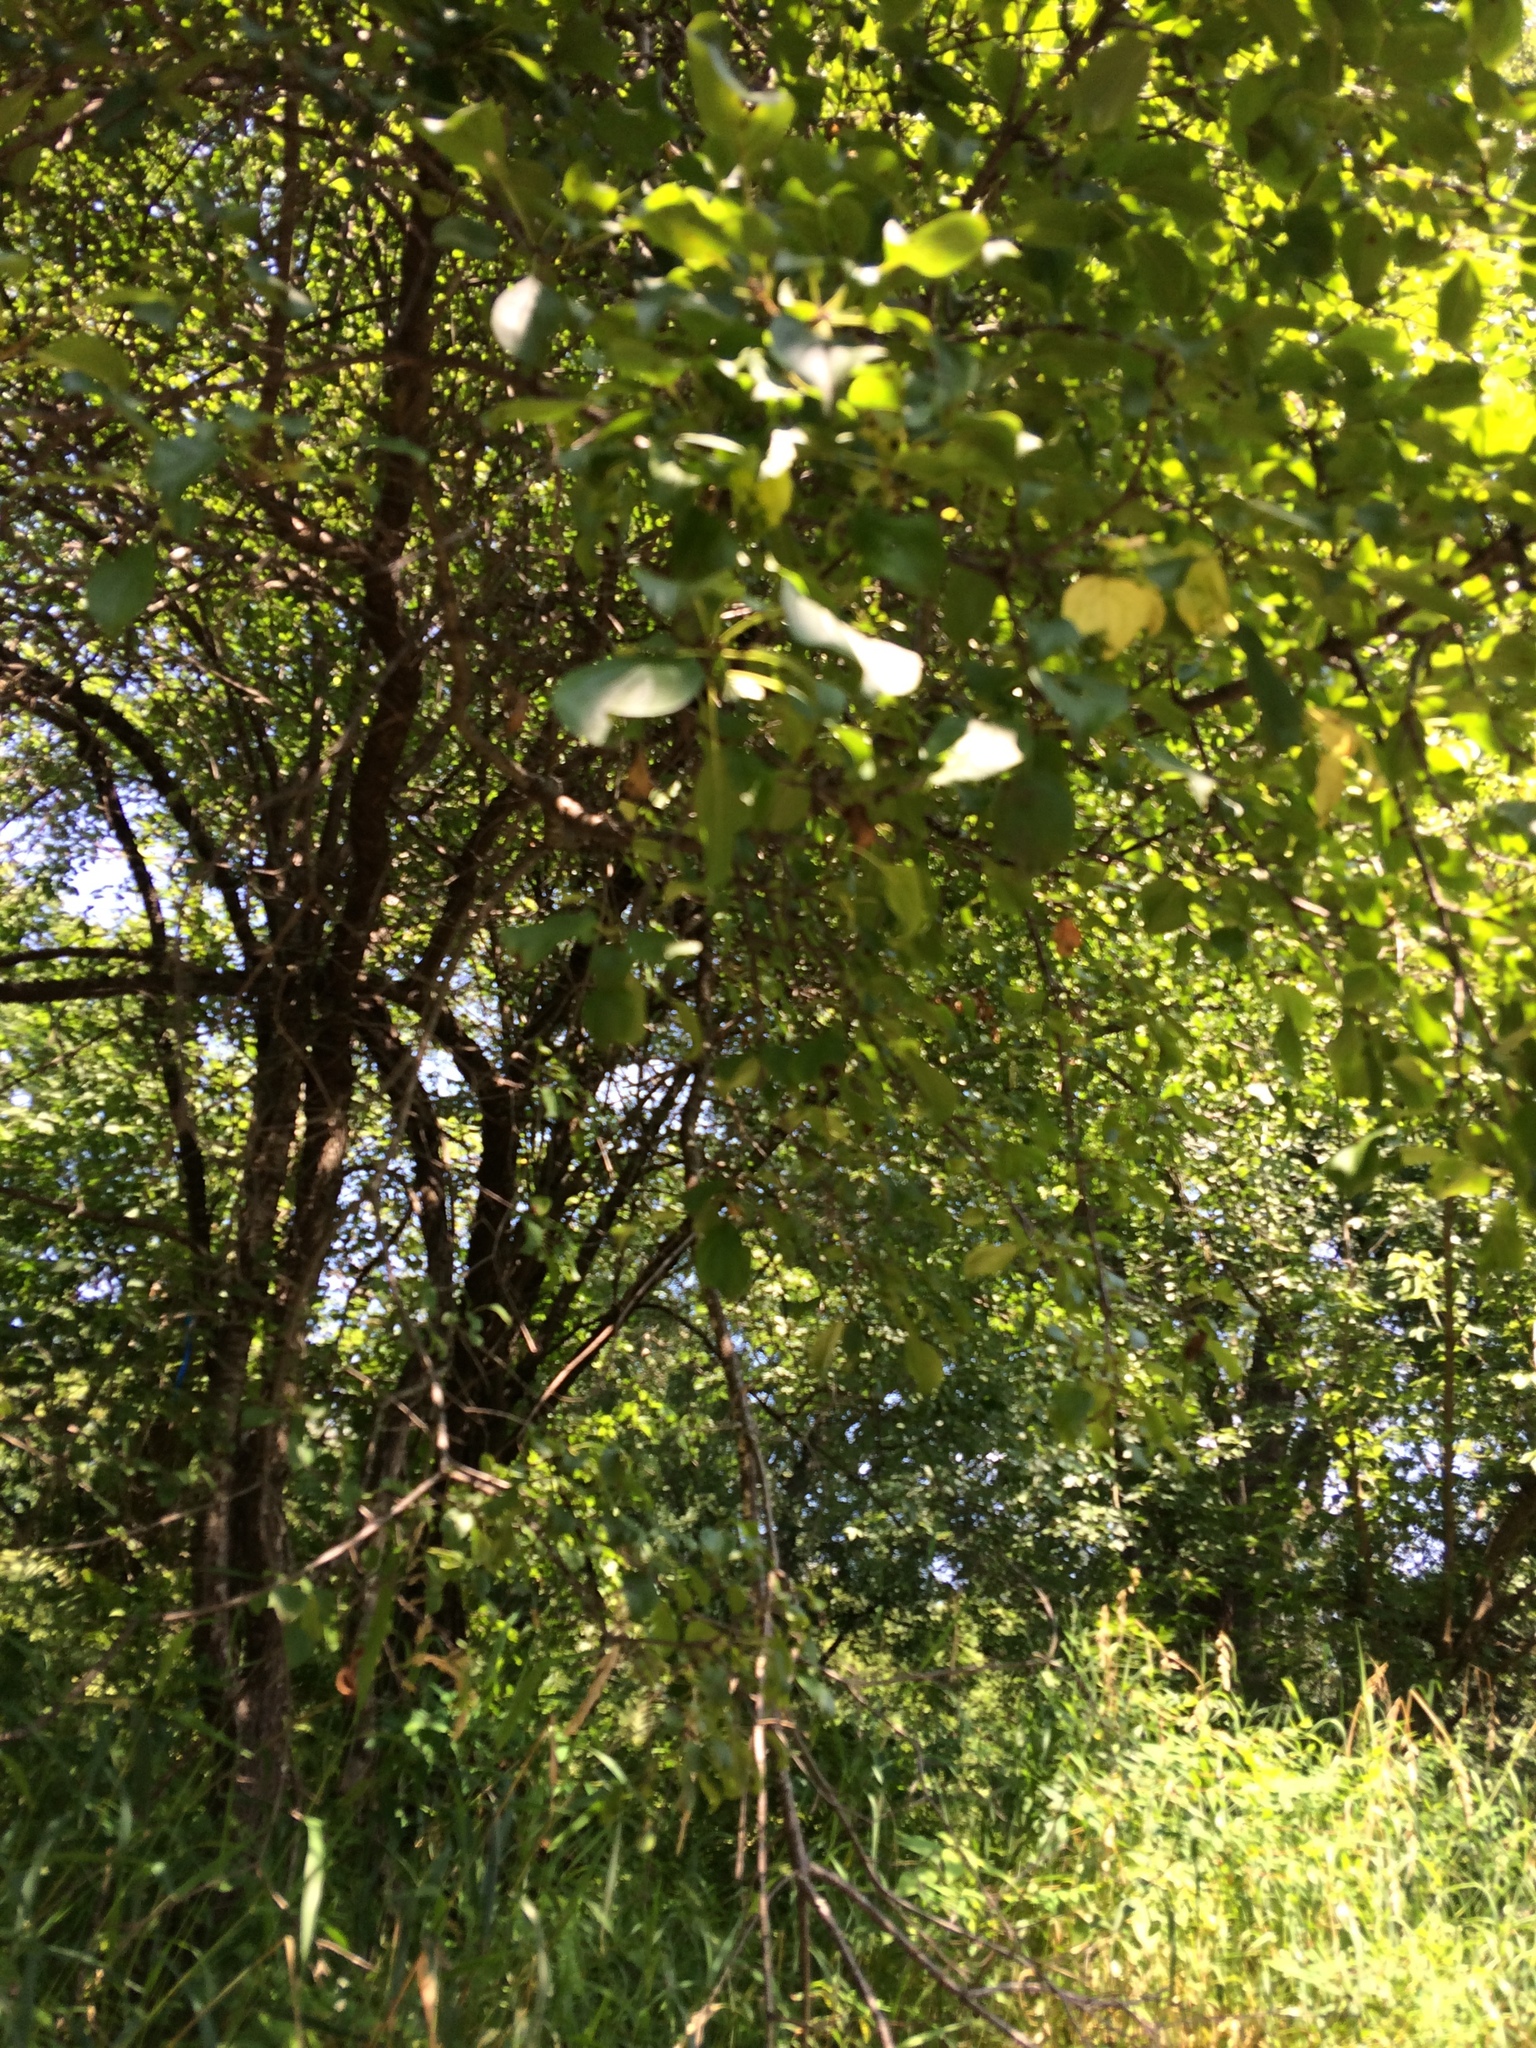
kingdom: Plantae
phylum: Tracheophyta
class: Magnoliopsida
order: Rosales
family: Rhamnaceae
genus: Rhamnus
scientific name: Rhamnus cathartica
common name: Common buckthorn
